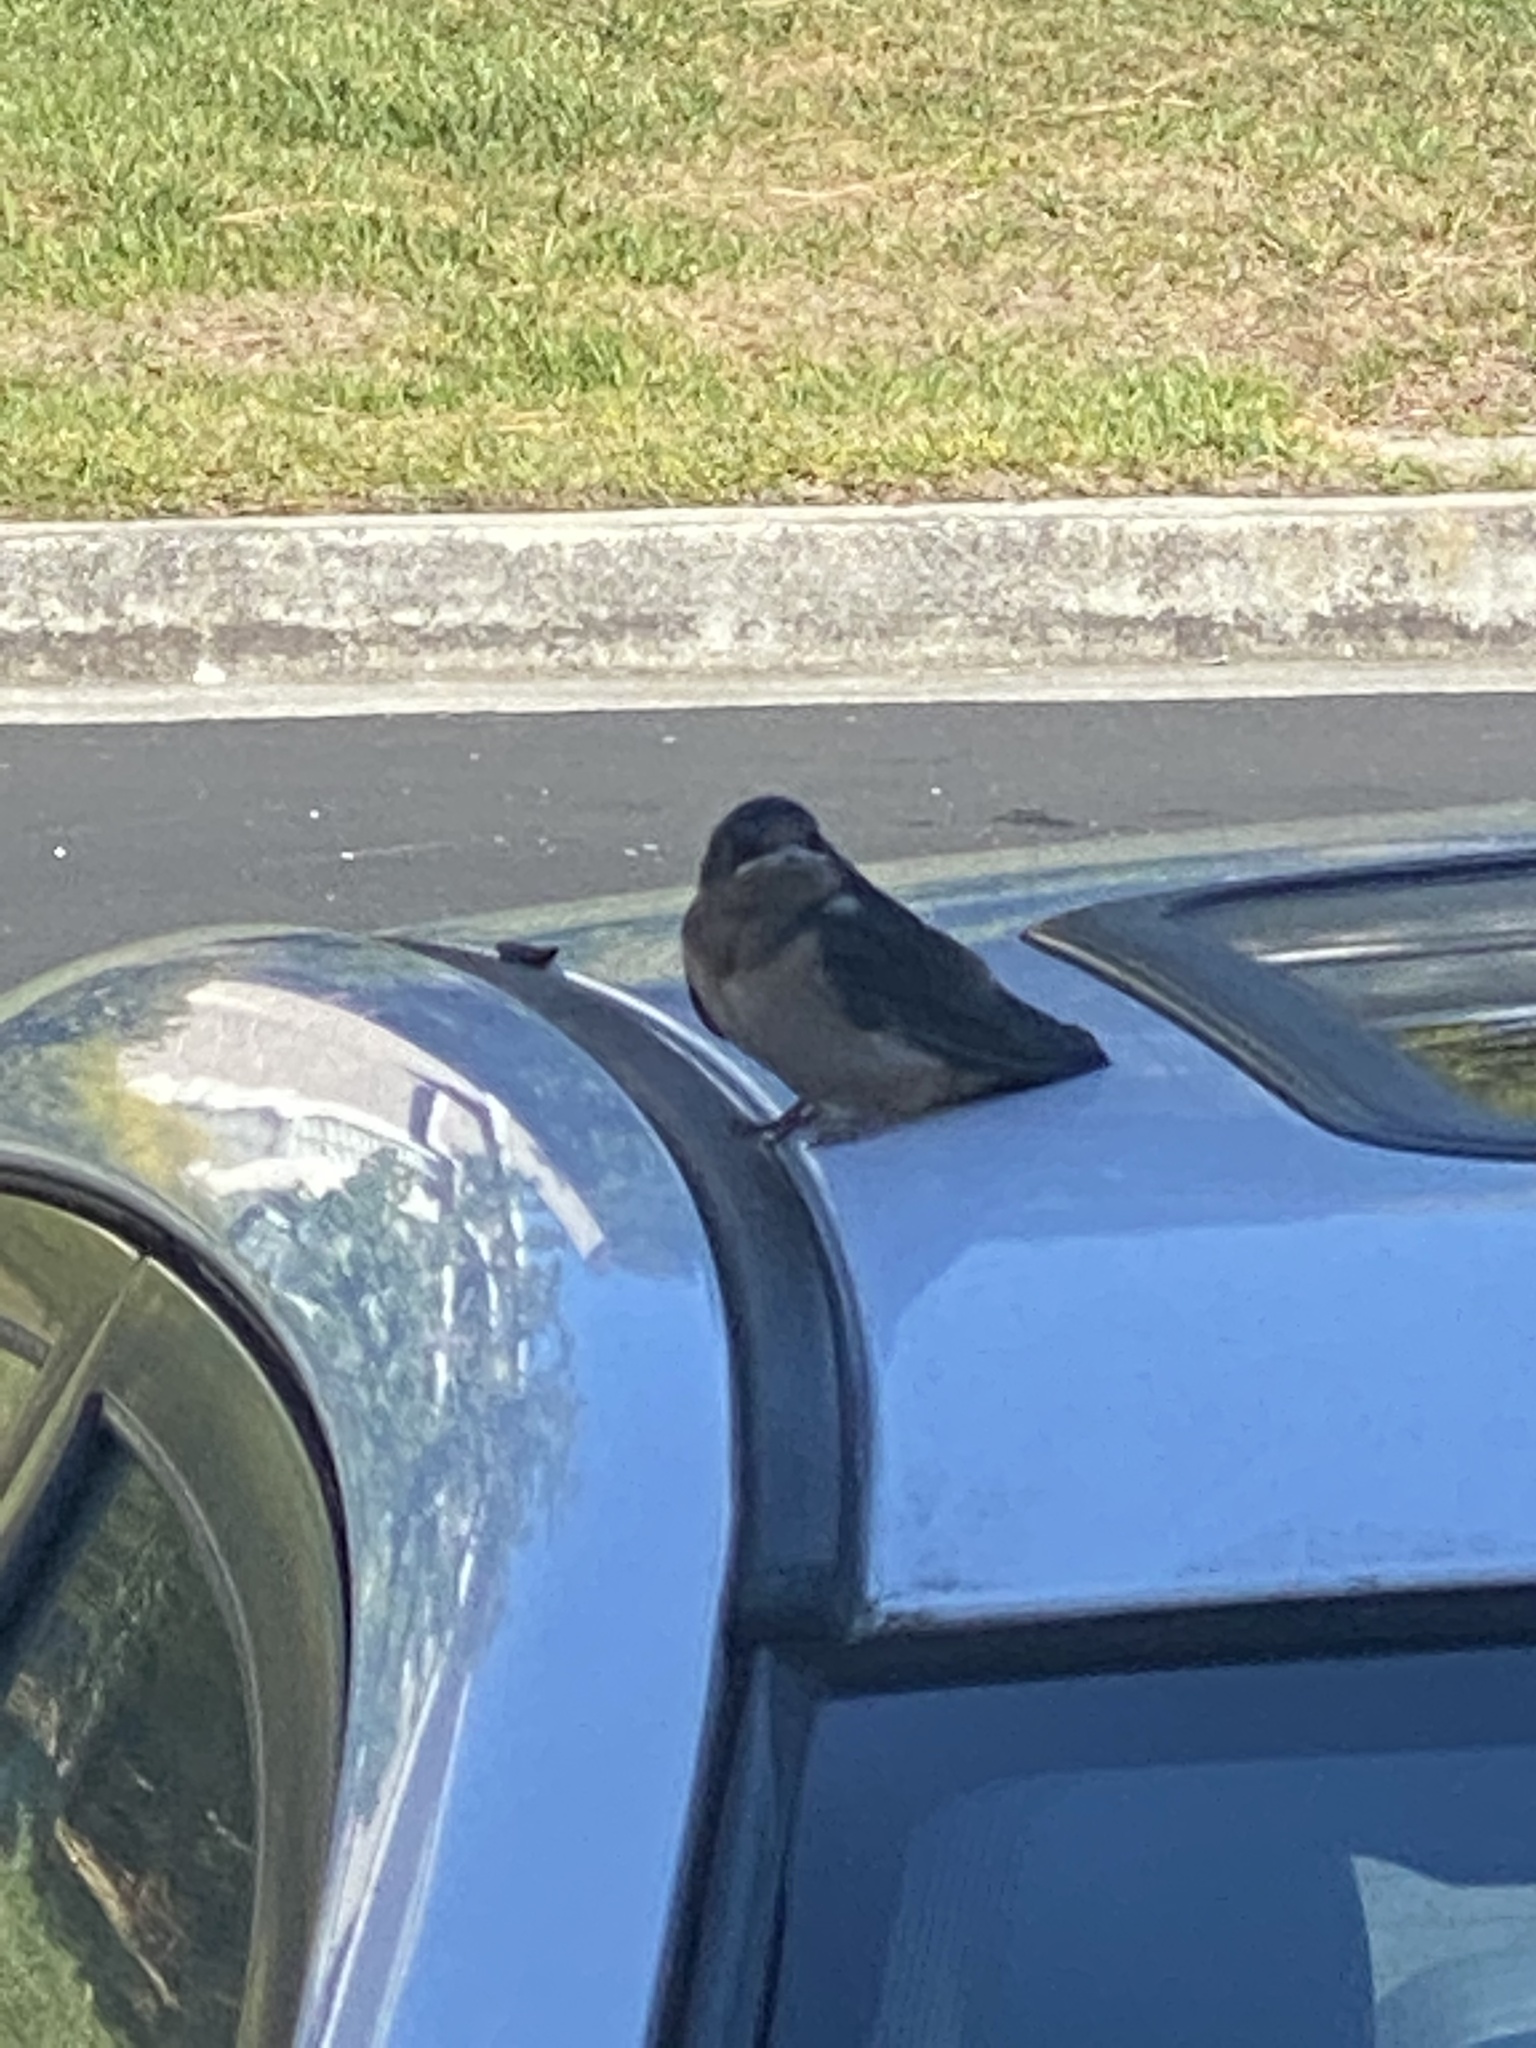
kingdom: Animalia
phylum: Chordata
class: Aves
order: Passeriformes
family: Hirundinidae
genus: Hirundo
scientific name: Hirundo rustica
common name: Barn swallow
